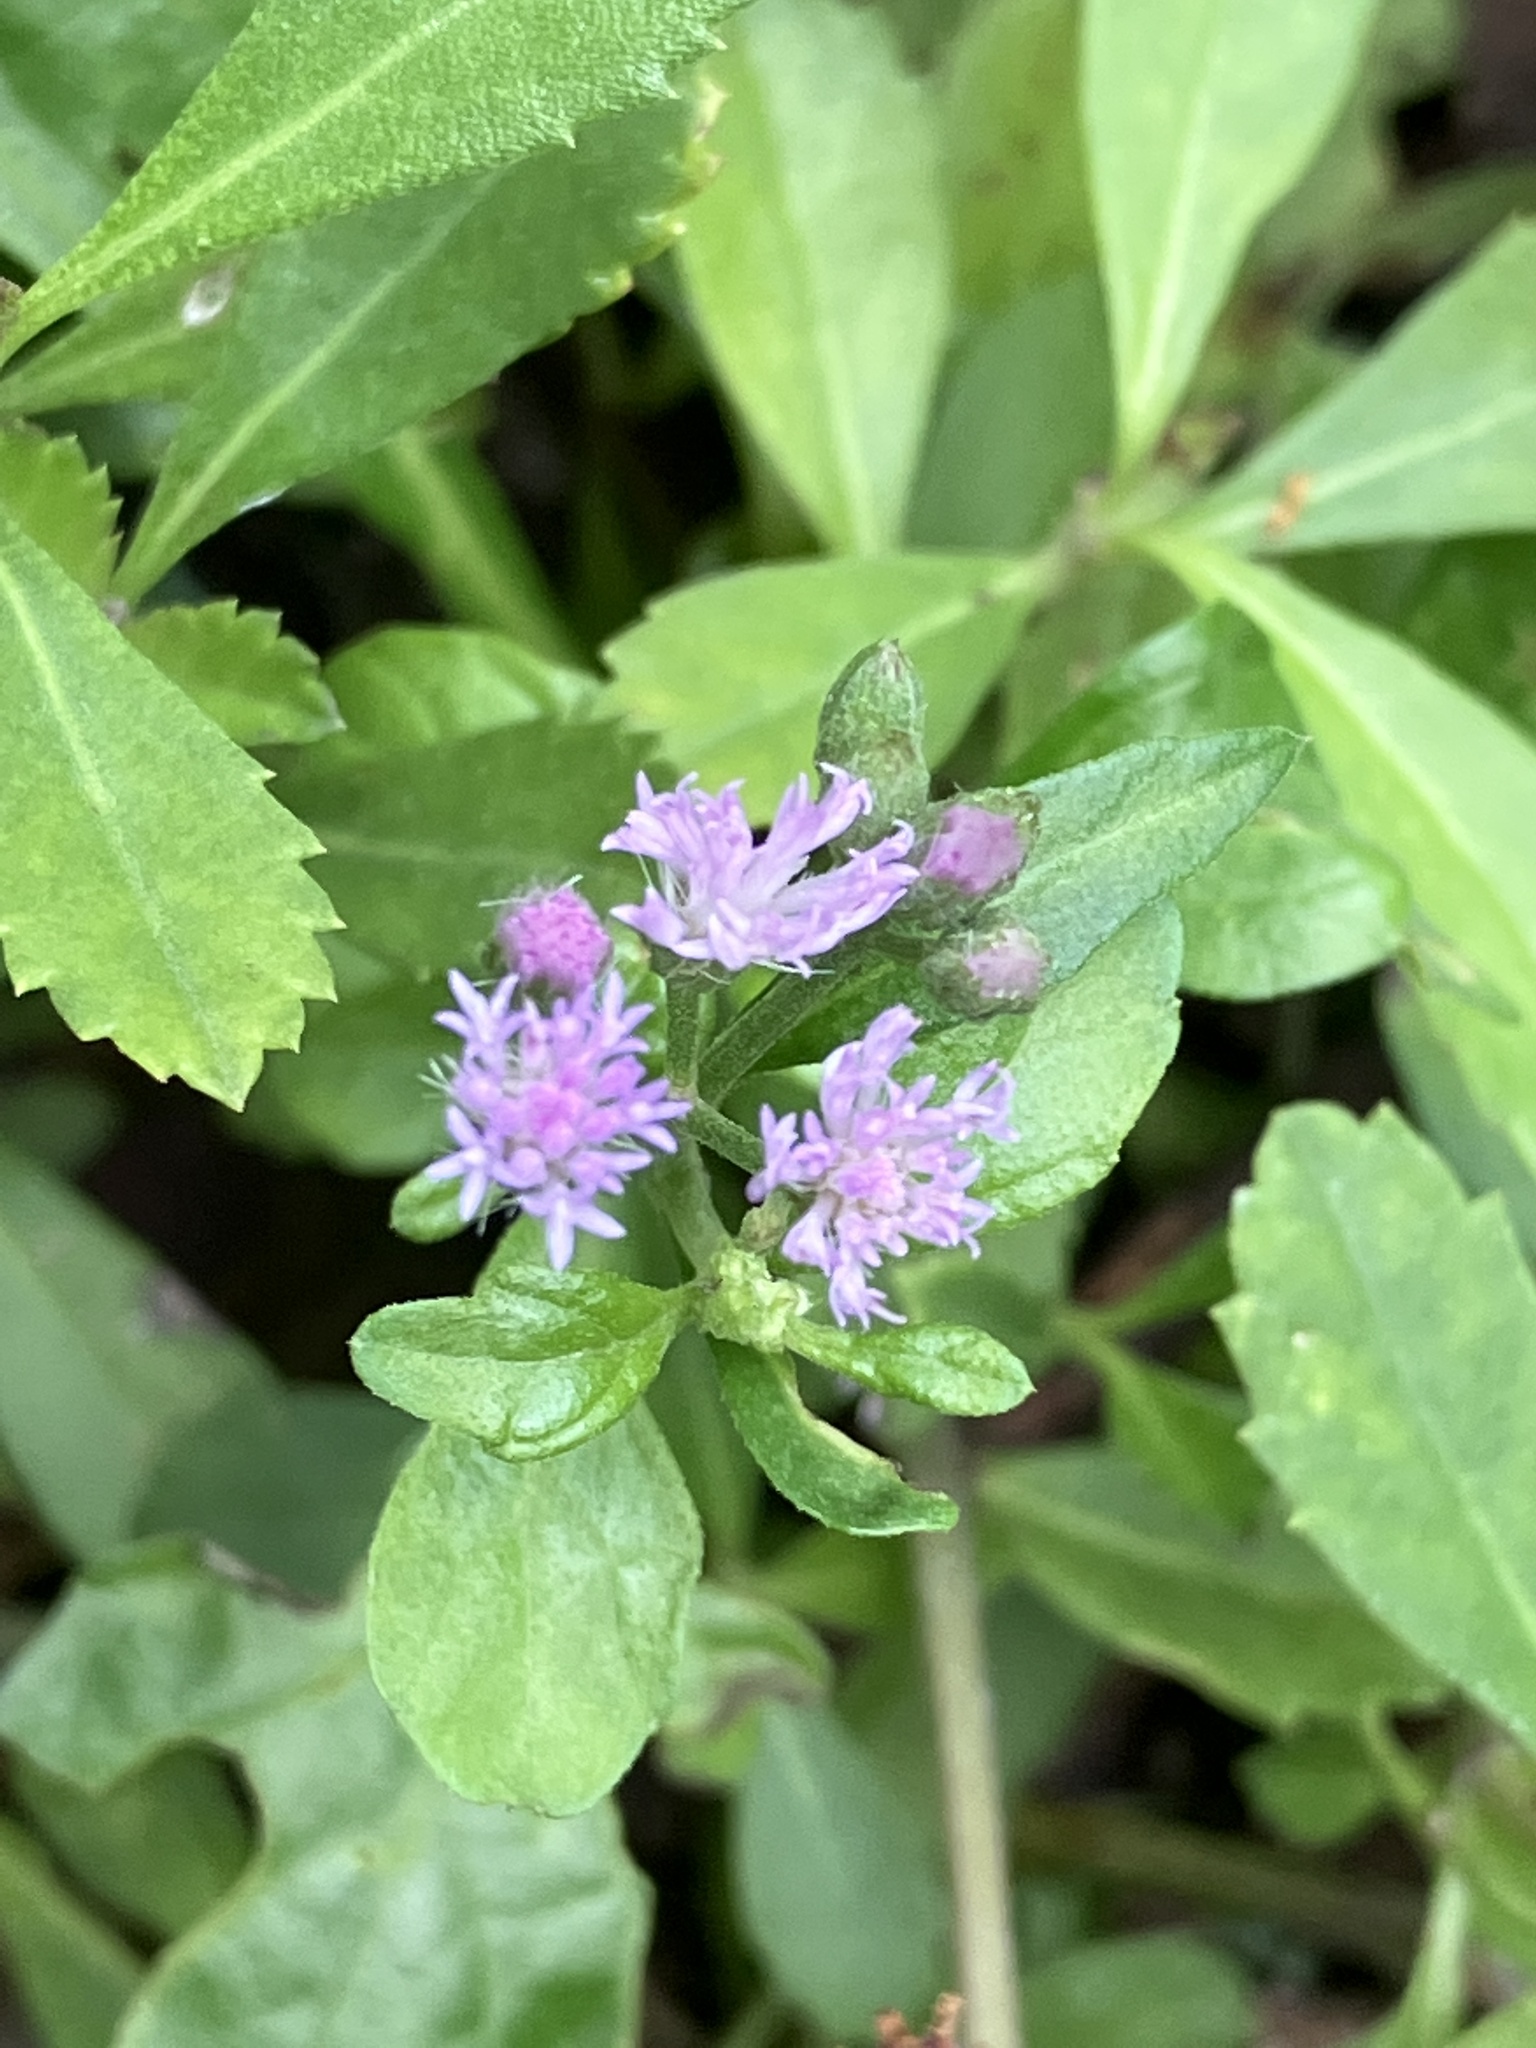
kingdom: Plantae
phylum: Tracheophyta
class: Magnoliopsida
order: Asterales
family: Asteraceae
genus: Cyanthillium
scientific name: Cyanthillium cinereum
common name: Little ironweed
